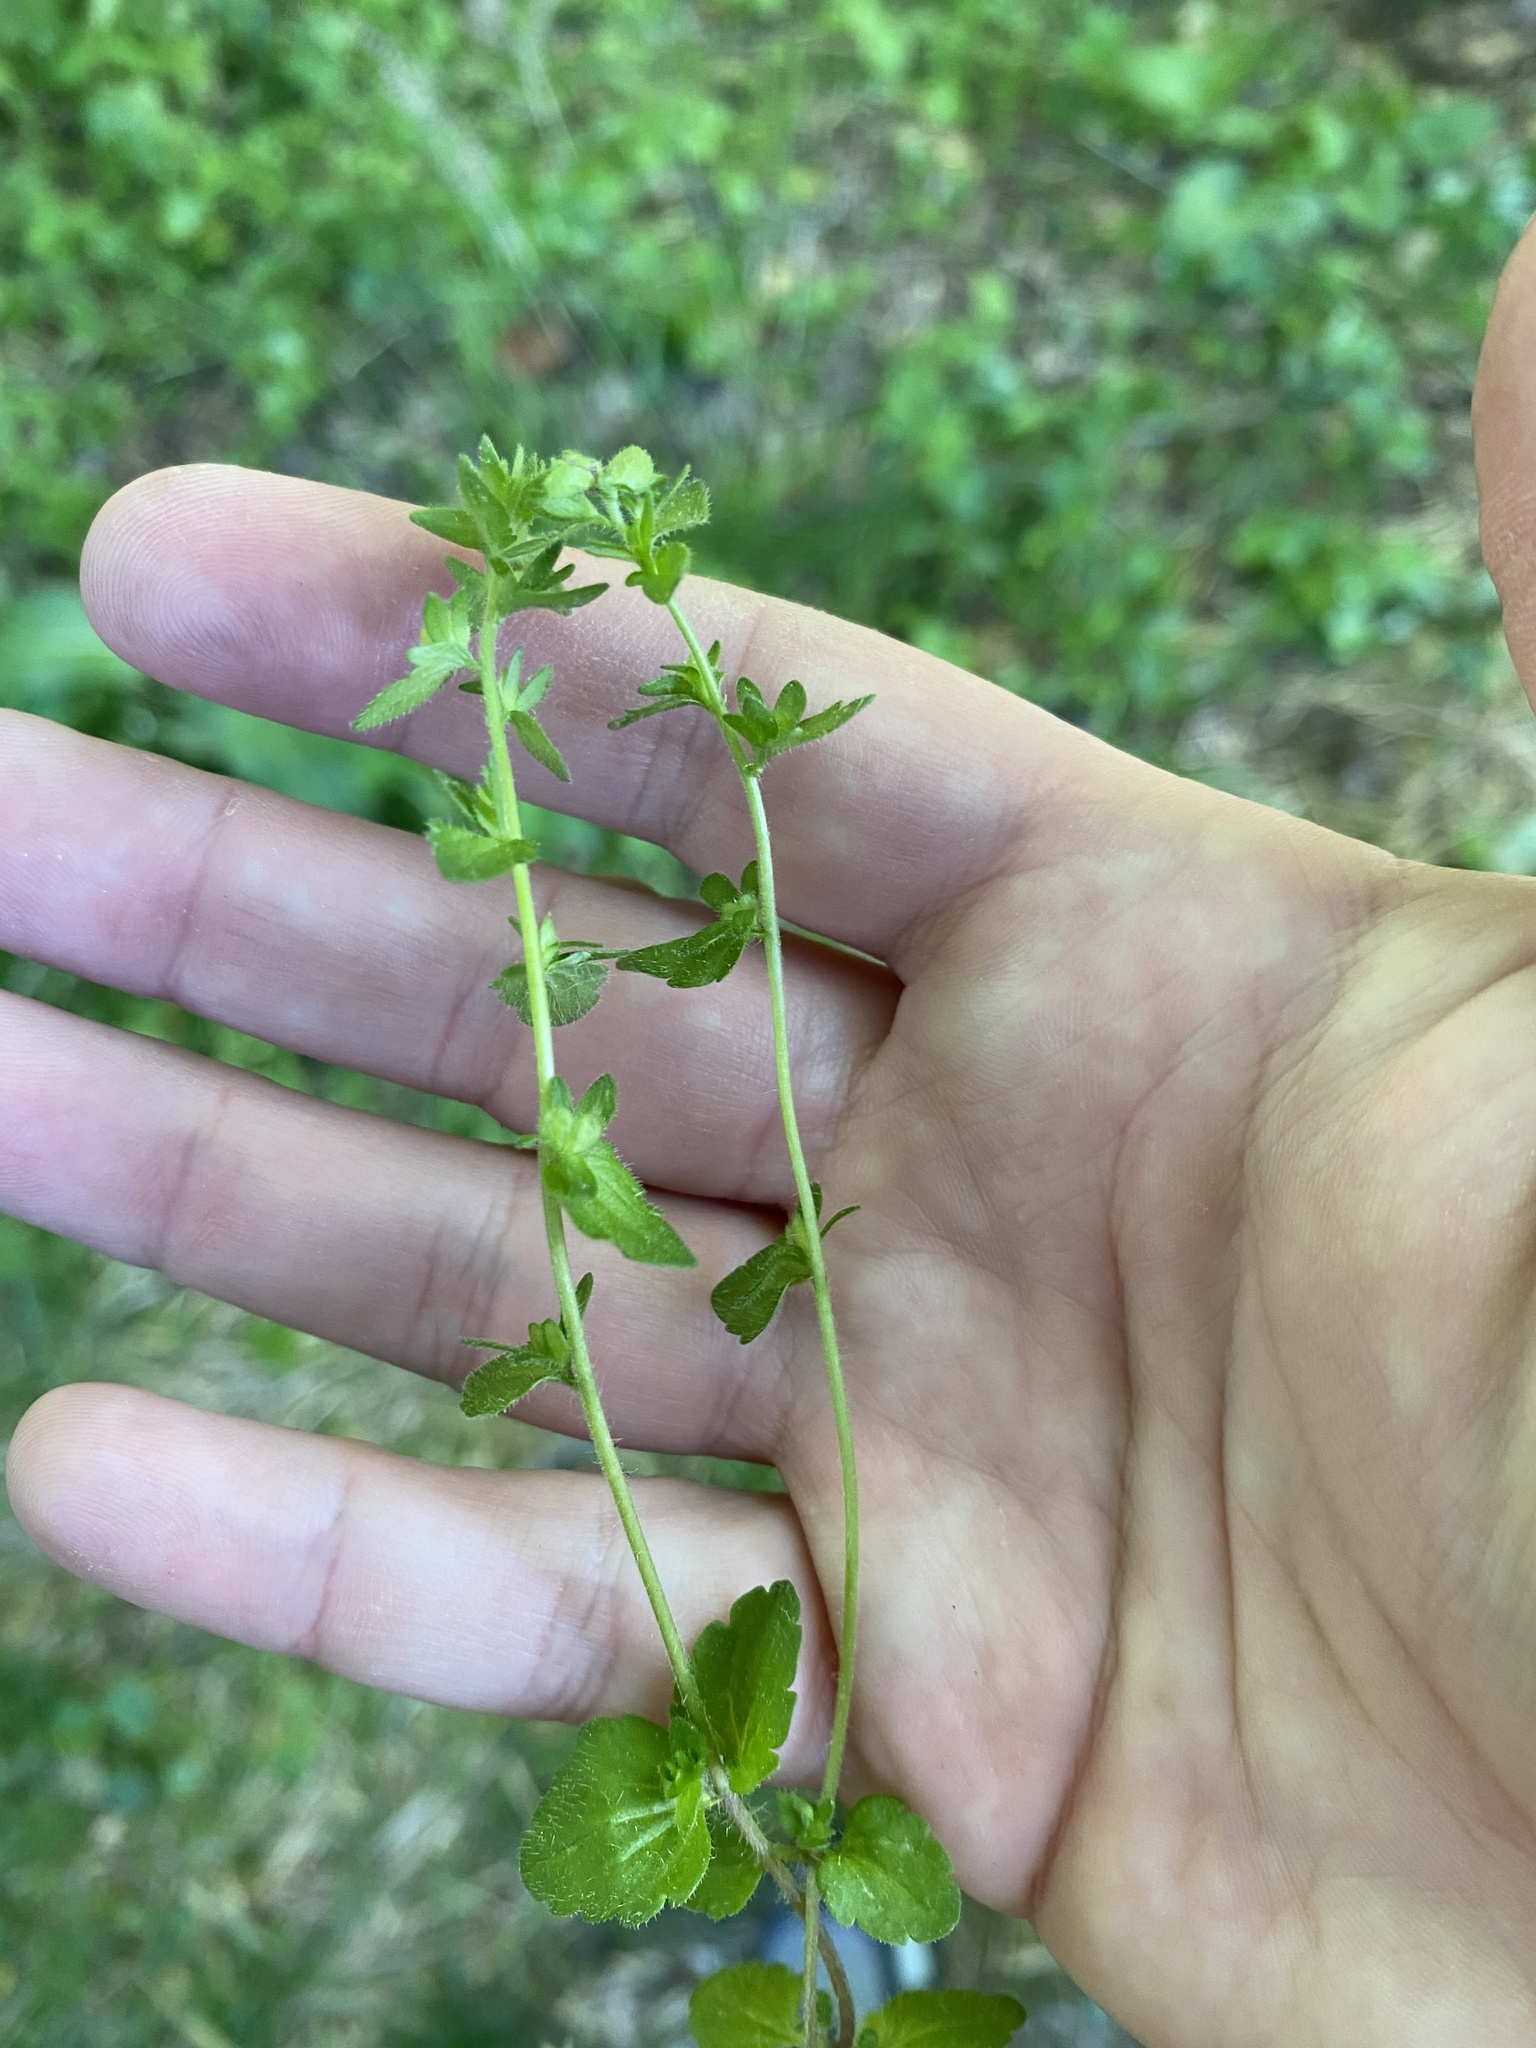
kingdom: Plantae
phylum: Tracheophyta
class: Magnoliopsida
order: Lamiales
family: Plantaginaceae
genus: Veronica
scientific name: Veronica arvensis
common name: Corn speedwell
